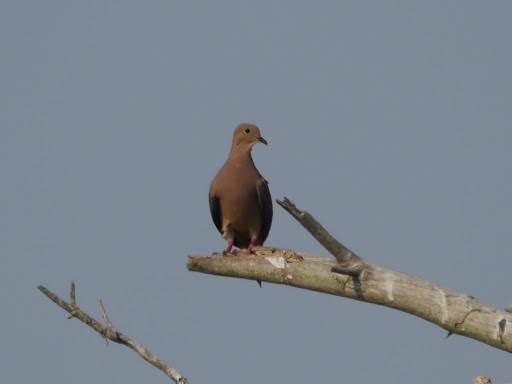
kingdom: Animalia
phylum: Chordata
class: Aves
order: Columbiformes
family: Columbidae
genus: Zenaida
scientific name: Zenaida macroura
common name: Mourning dove
